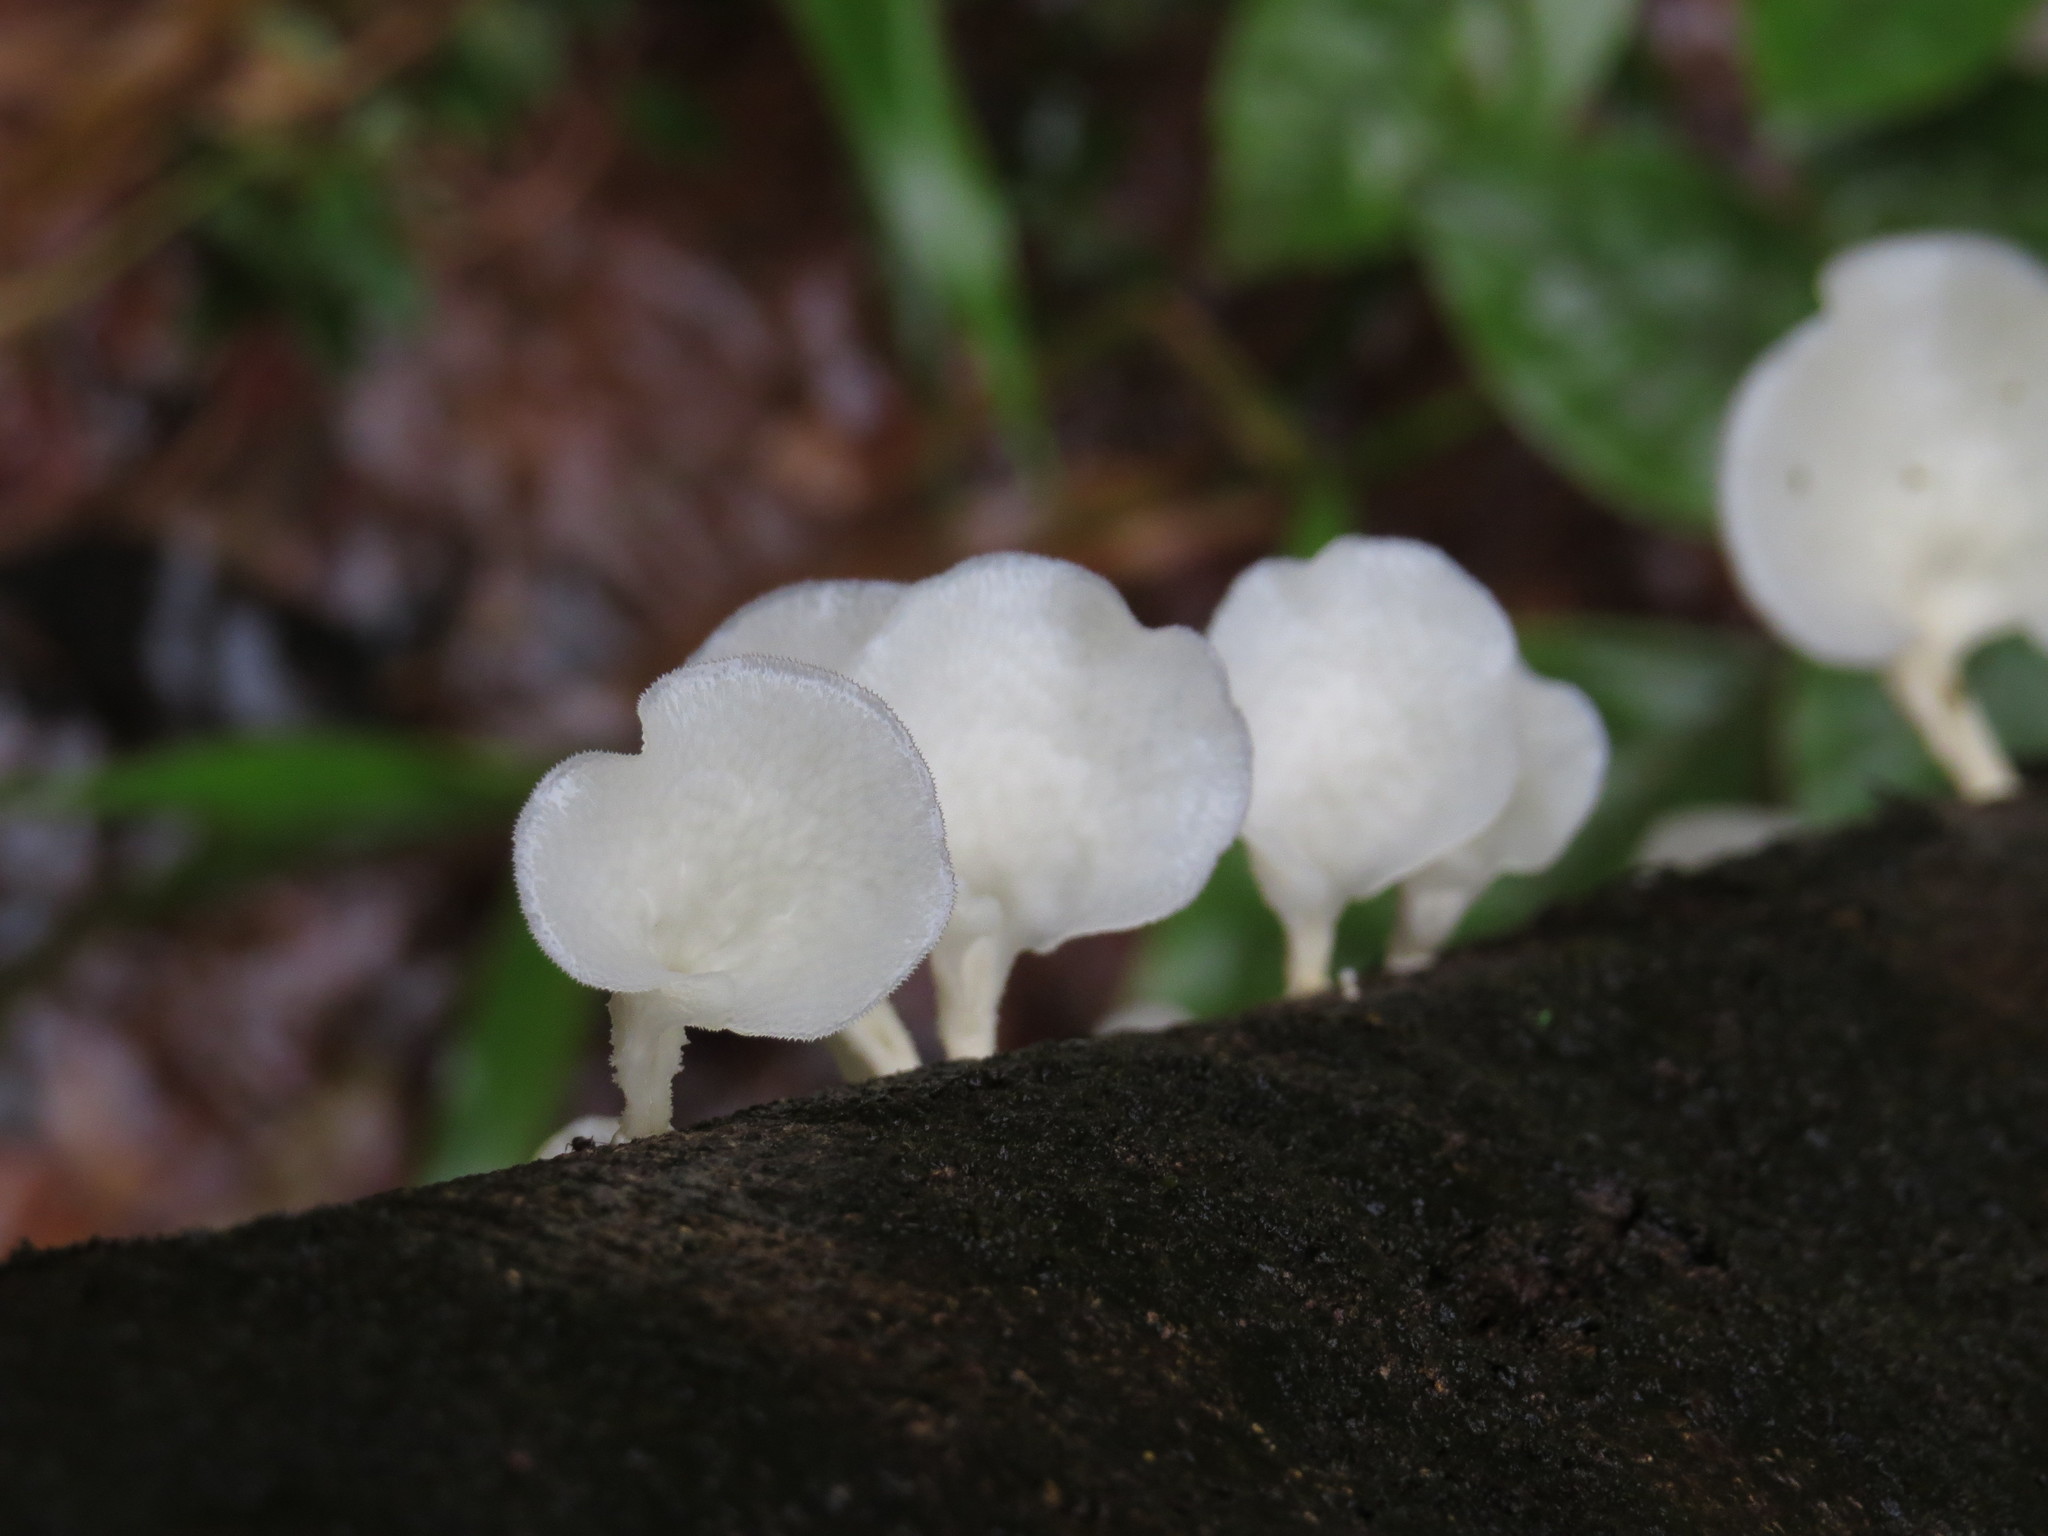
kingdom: Fungi
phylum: Basidiomycota
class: Agaricomycetes
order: Polyporales
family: Polyporaceae
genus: Favolus
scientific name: Favolus tenuiculus
